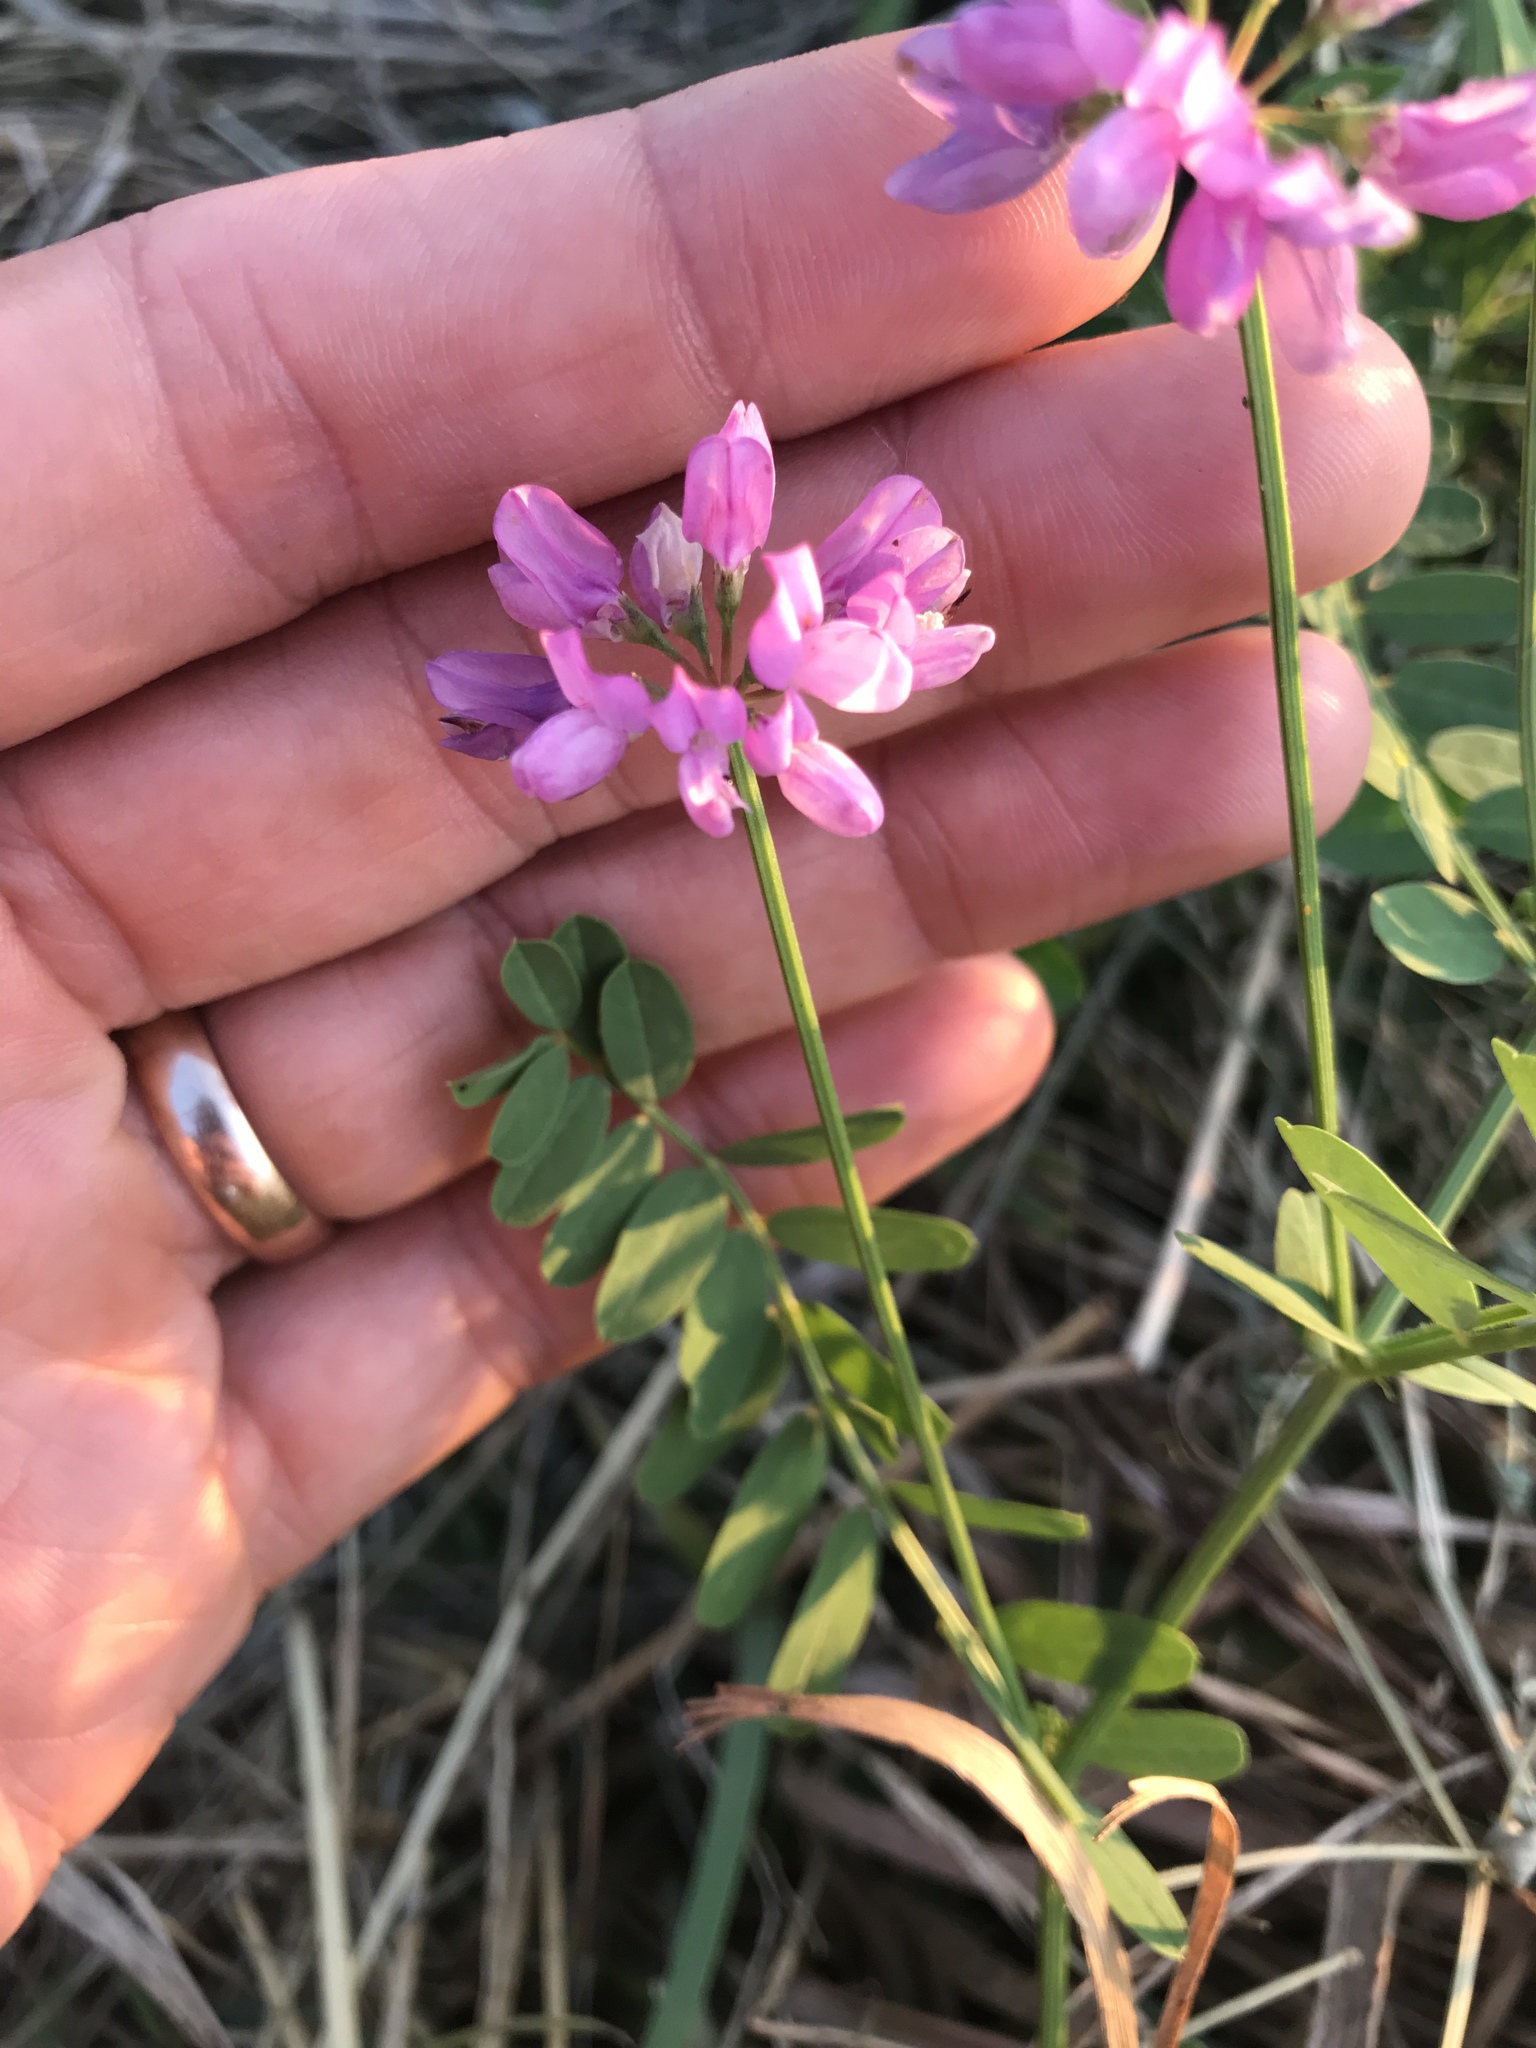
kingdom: Plantae
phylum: Tracheophyta
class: Magnoliopsida
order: Fabales
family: Fabaceae
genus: Coronilla
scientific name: Coronilla varia
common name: Crownvetch
